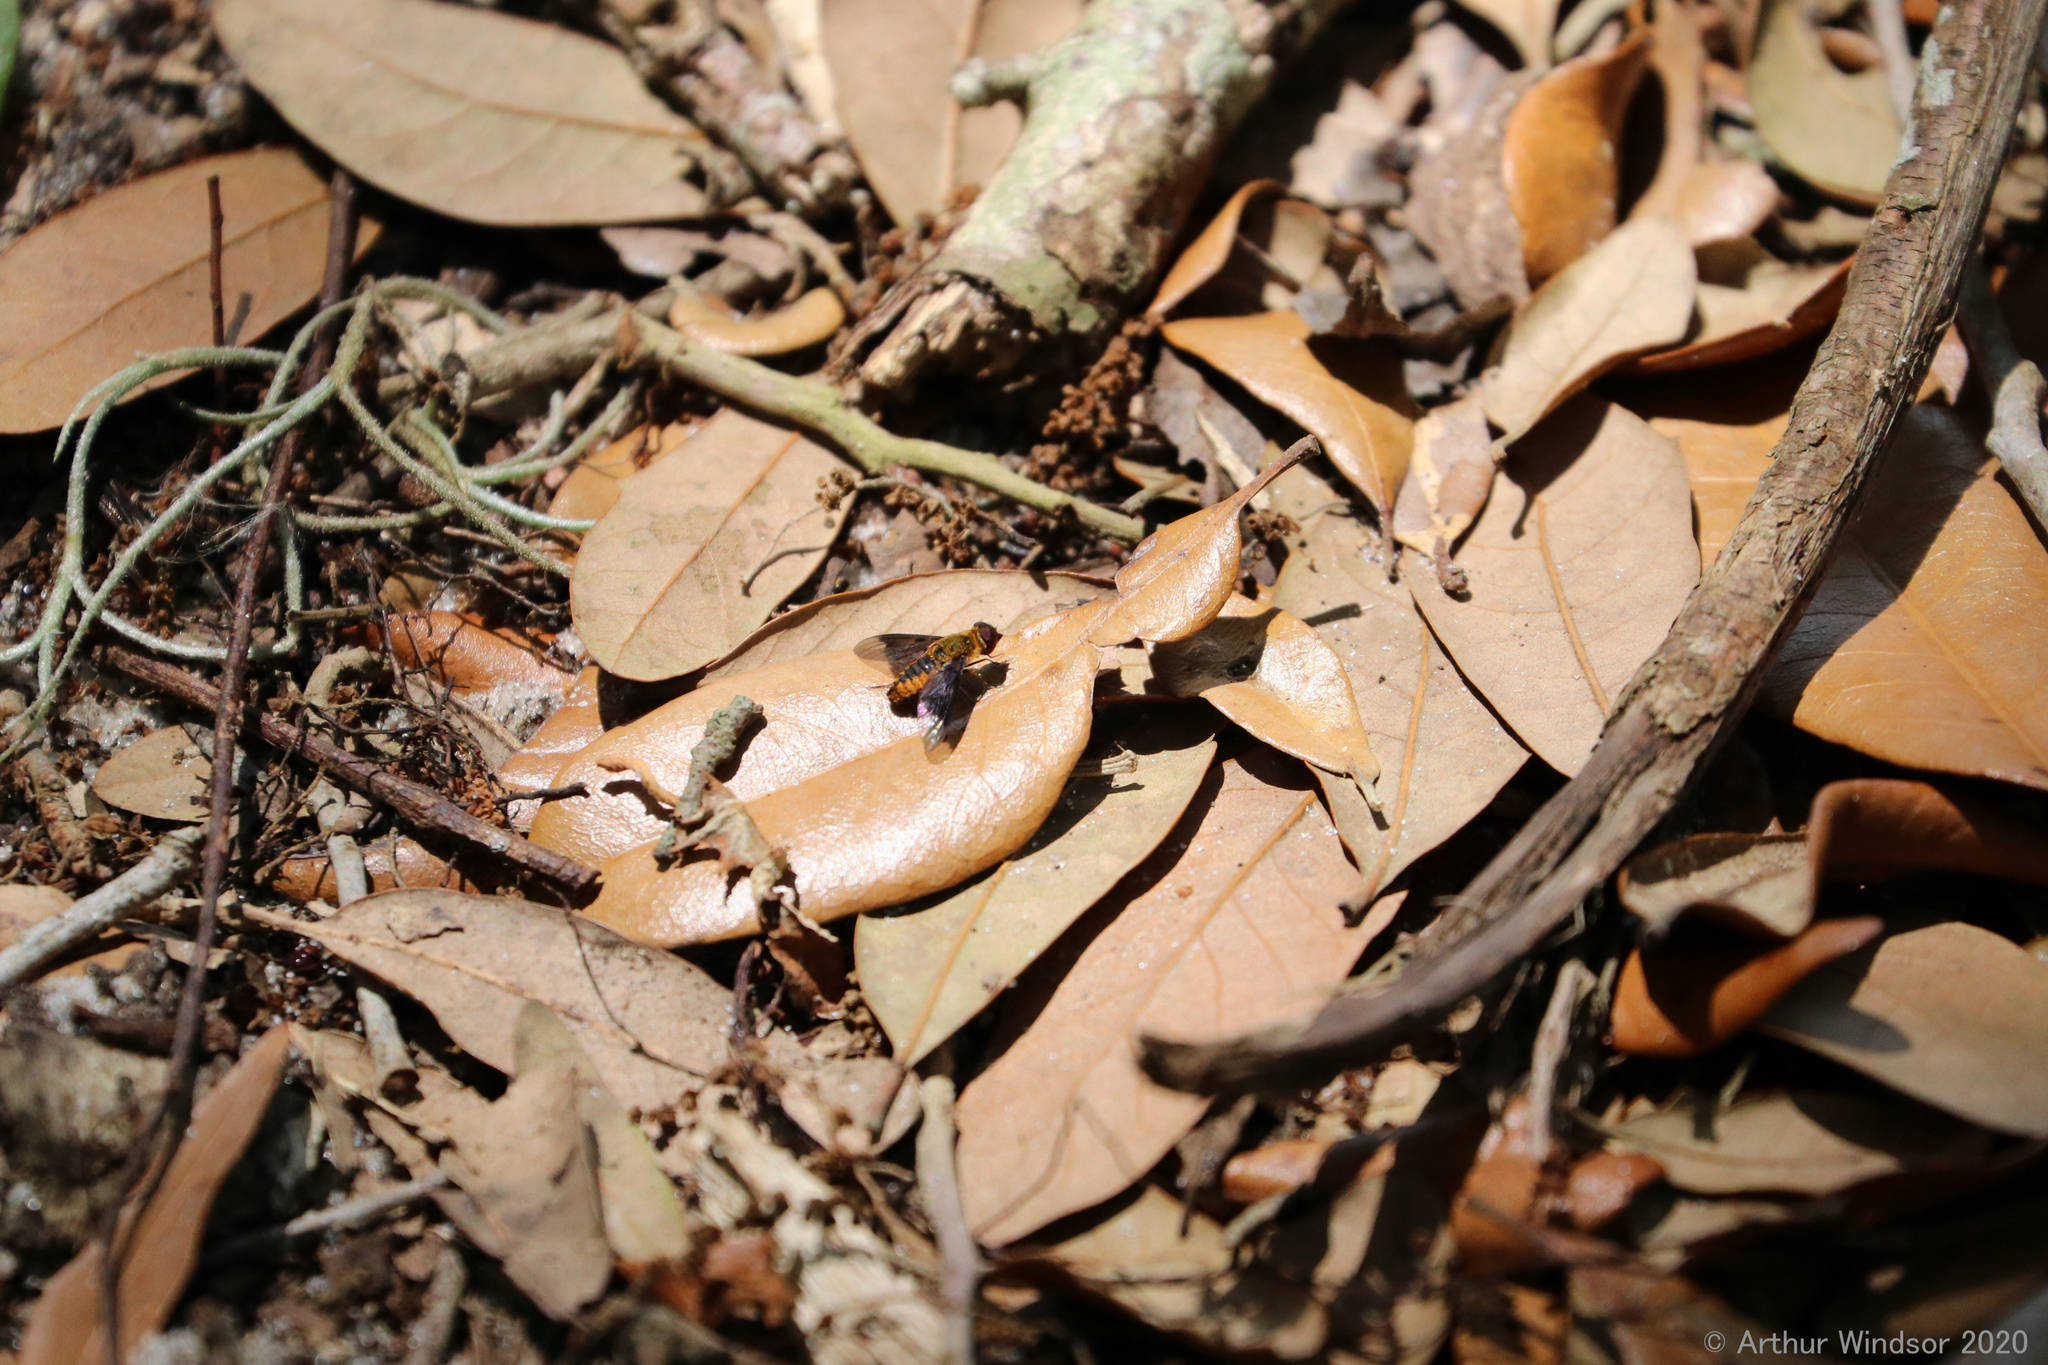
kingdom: Animalia
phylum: Arthropoda
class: Insecta
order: Diptera
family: Bombyliidae
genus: Chrysanthrax
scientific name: Chrysanthrax cypris
